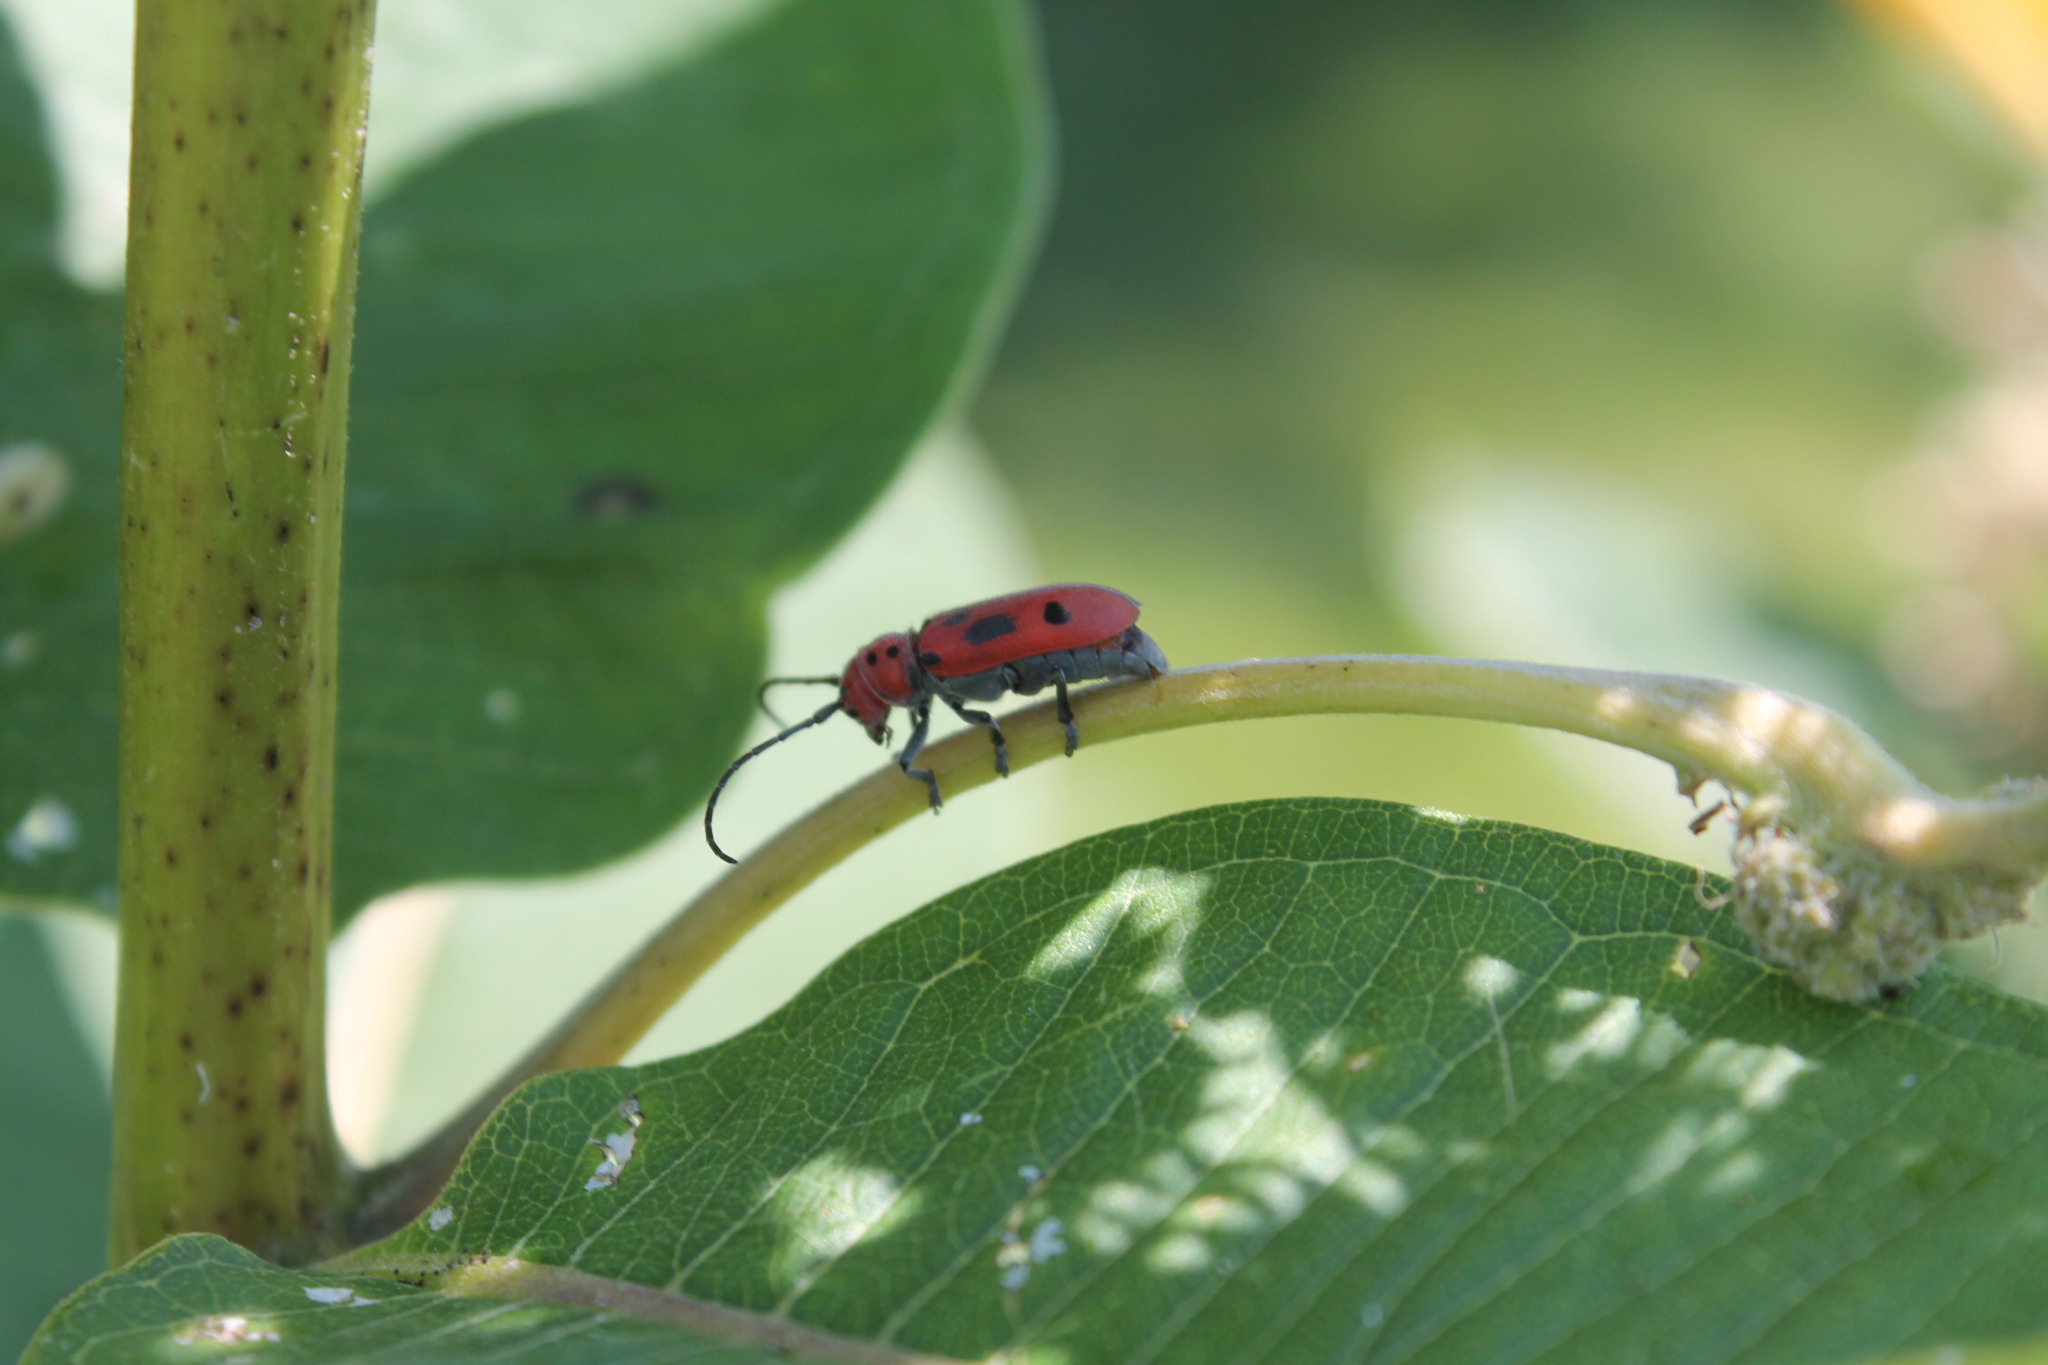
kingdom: Animalia
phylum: Arthropoda
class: Insecta
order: Coleoptera
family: Cerambycidae
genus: Tetraopes
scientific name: Tetraopes tetrophthalmus
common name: Red milkweed beetle
